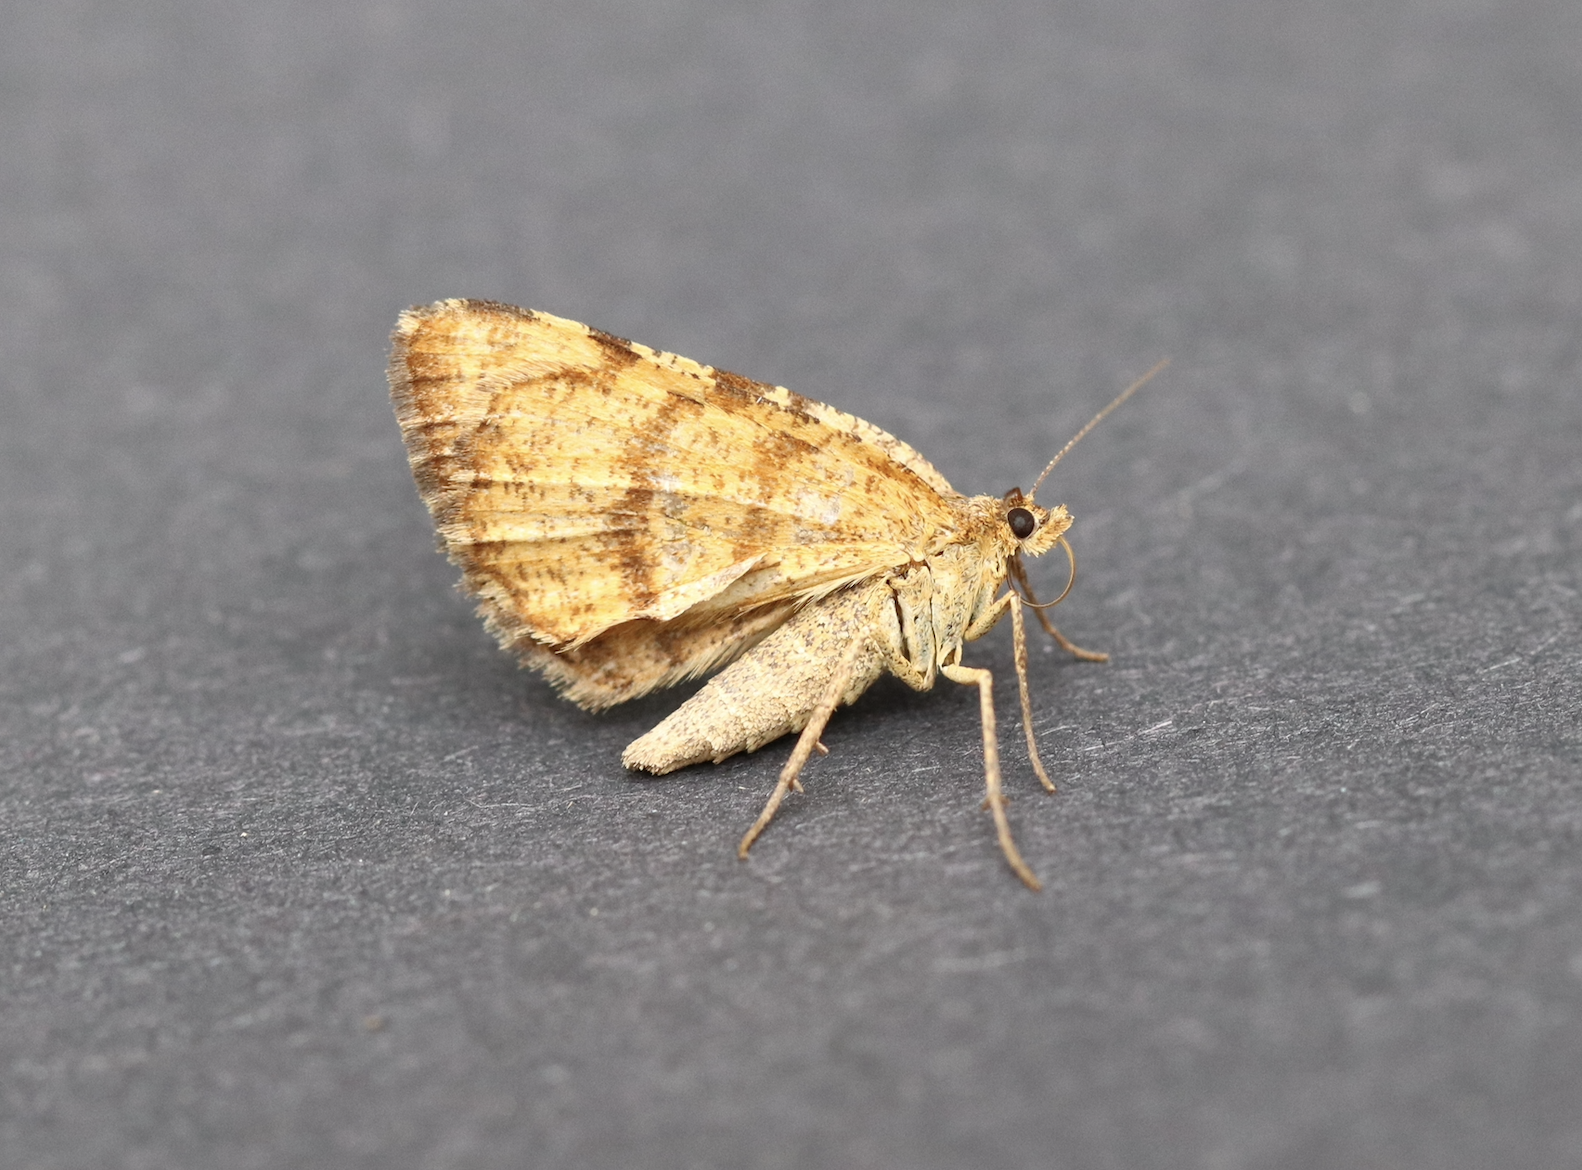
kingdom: Animalia
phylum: Arthropoda
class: Insecta
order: Lepidoptera
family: Geometridae
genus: Macaria
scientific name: Macaria brunneata
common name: Rannoch looper
